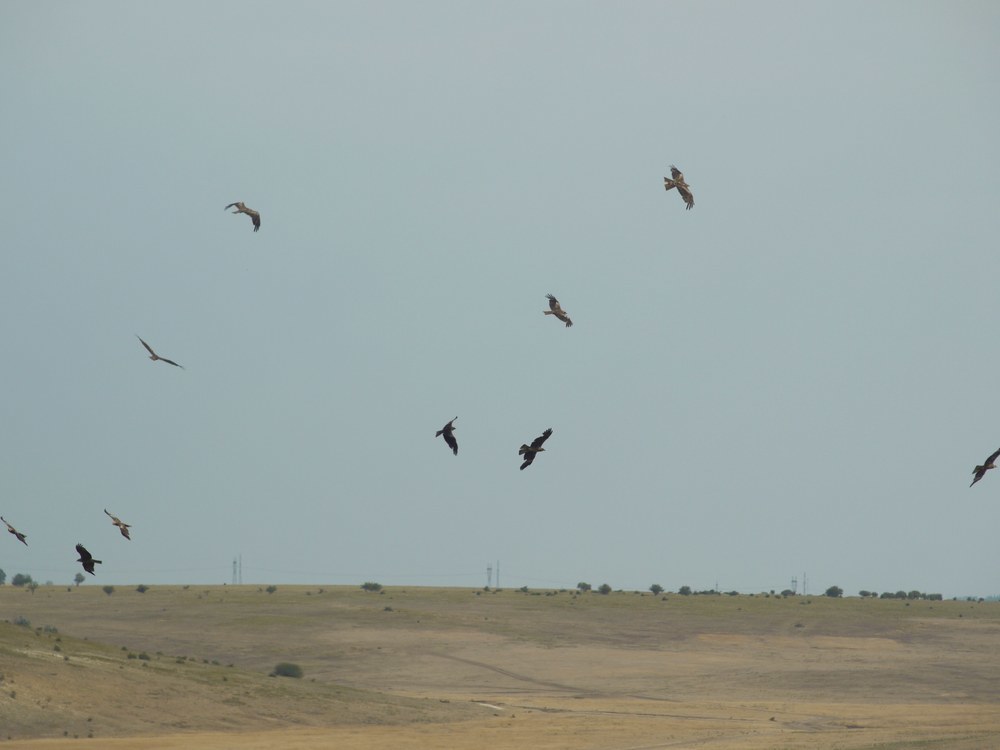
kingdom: Animalia
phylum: Chordata
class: Aves
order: Accipitriformes
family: Accipitridae
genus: Milvus
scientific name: Milvus migrans
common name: Black kite
